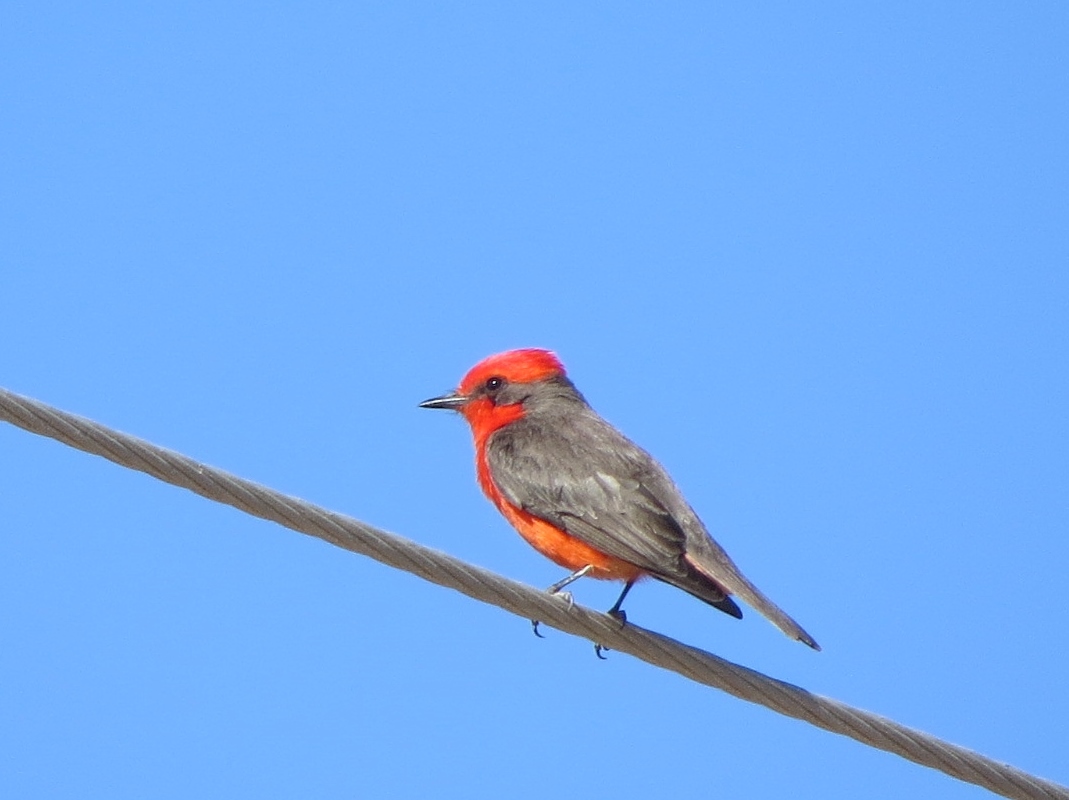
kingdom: Animalia
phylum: Chordata
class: Aves
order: Passeriformes
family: Tyrannidae
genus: Pyrocephalus
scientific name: Pyrocephalus rubinus
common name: Vermilion flycatcher
